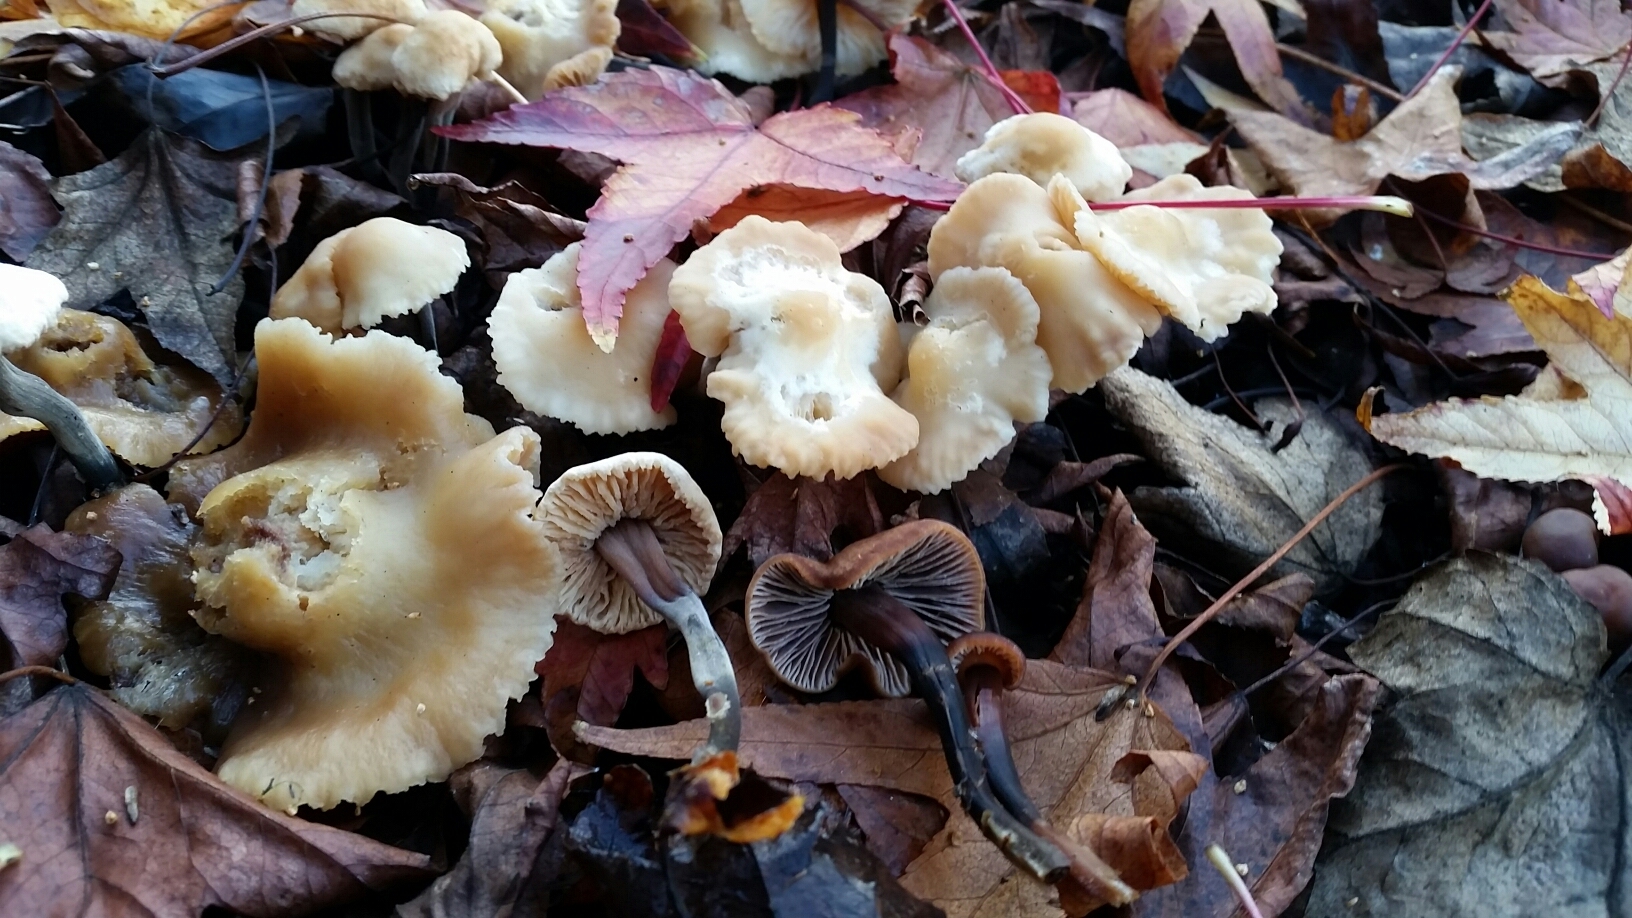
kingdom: Fungi
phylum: Basidiomycota
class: Agaricomycetes
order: Agaricales
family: Omphalotaceae
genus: Gymnopus
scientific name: Gymnopus brassicolens
